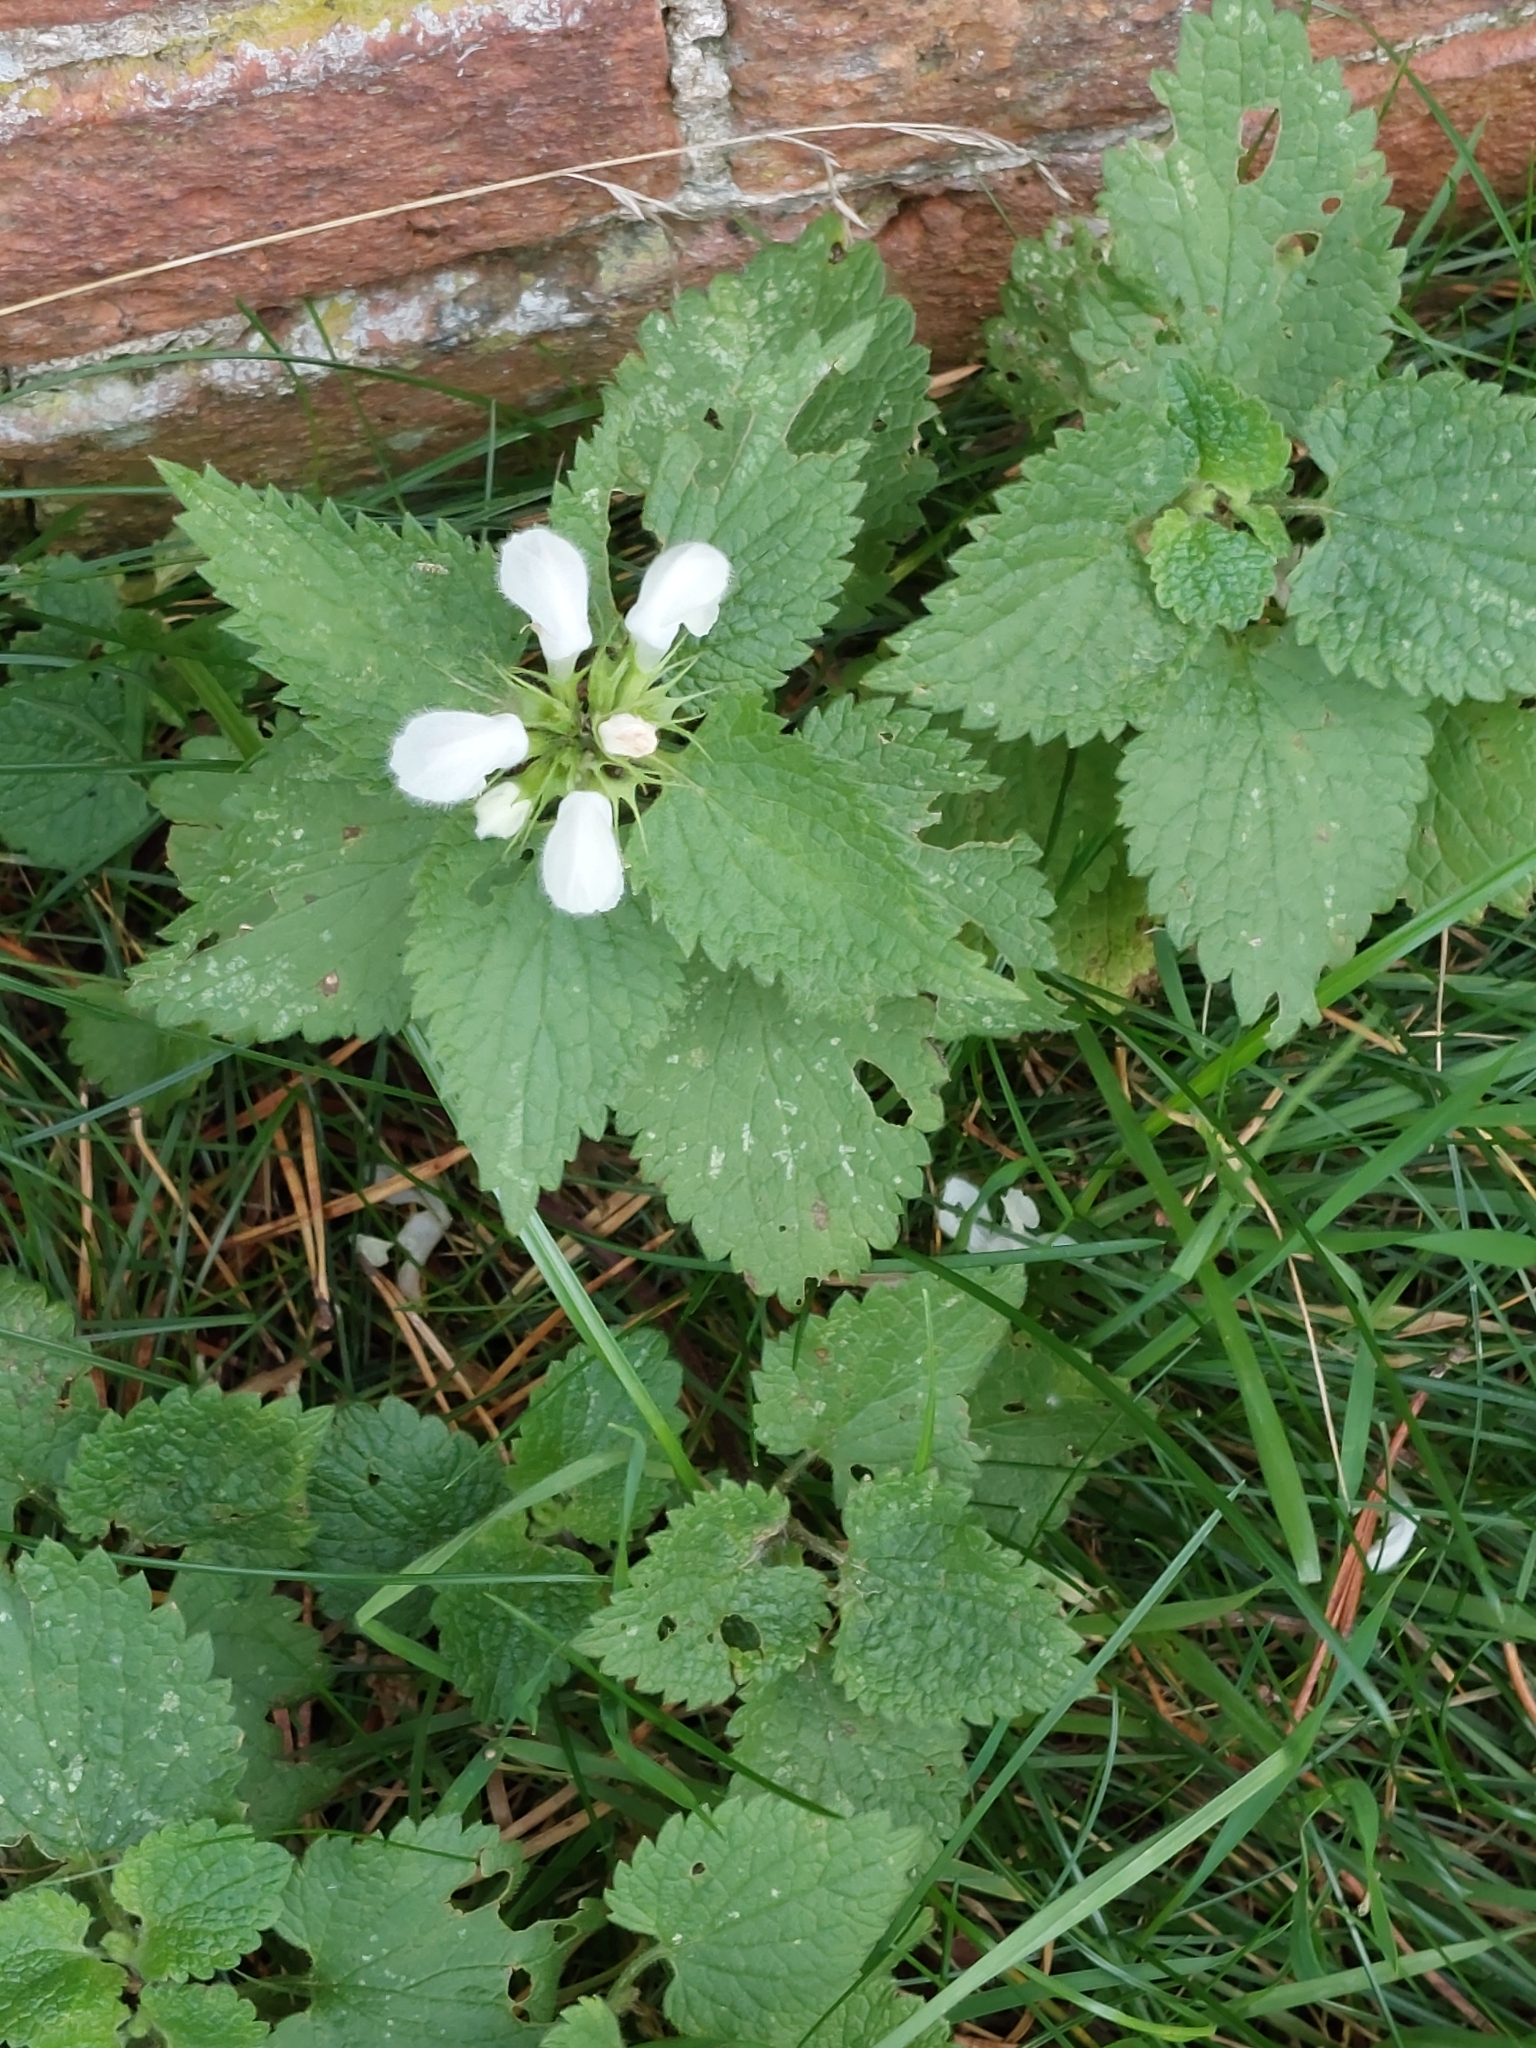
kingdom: Plantae
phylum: Tracheophyta
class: Magnoliopsida
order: Lamiales
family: Lamiaceae
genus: Lamium
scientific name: Lamium album
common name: White dead-nettle
